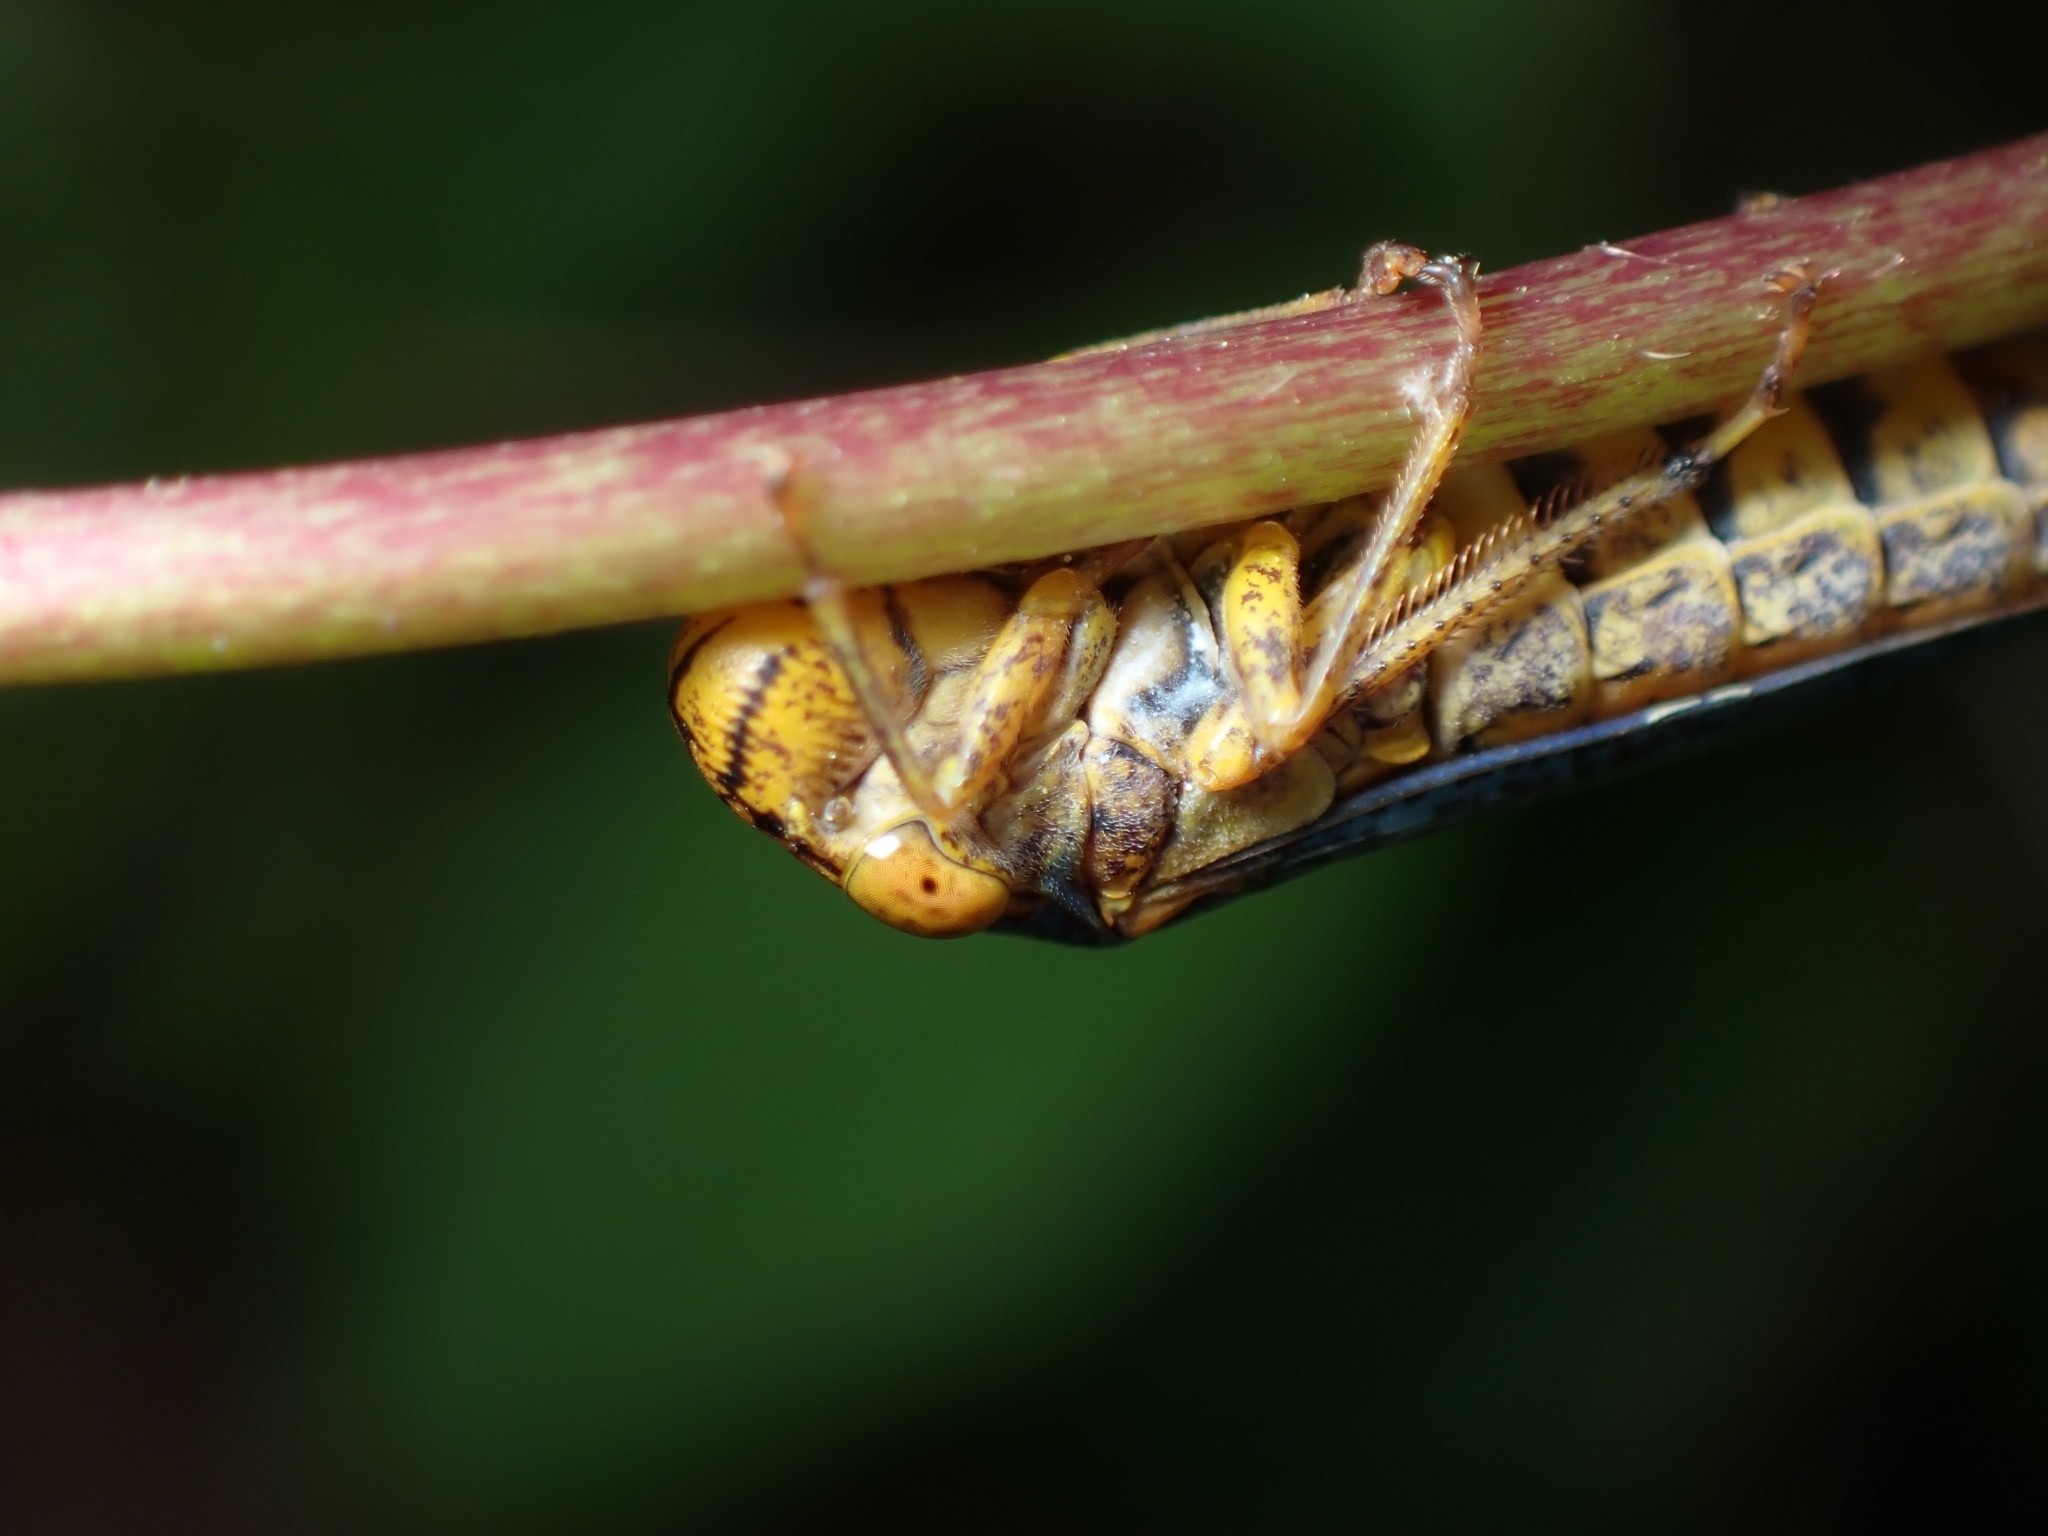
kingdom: Animalia
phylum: Arthropoda
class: Insecta
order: Hemiptera
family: Cicadellidae
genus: Oncometopia
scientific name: Oncometopia orbona
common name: Broad-headed sharpshooter
